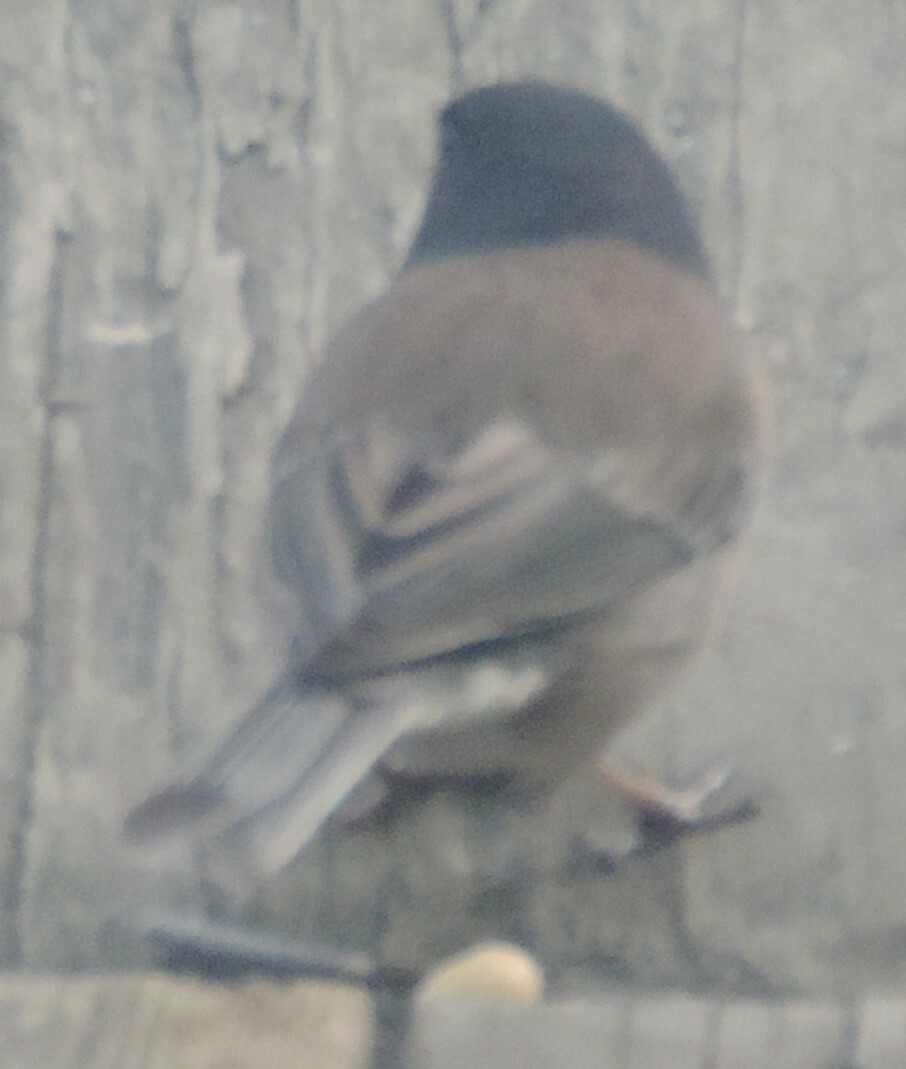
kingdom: Animalia
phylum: Chordata
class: Aves
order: Passeriformes
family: Passerellidae
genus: Junco
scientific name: Junco hyemalis
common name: Dark-eyed junco
